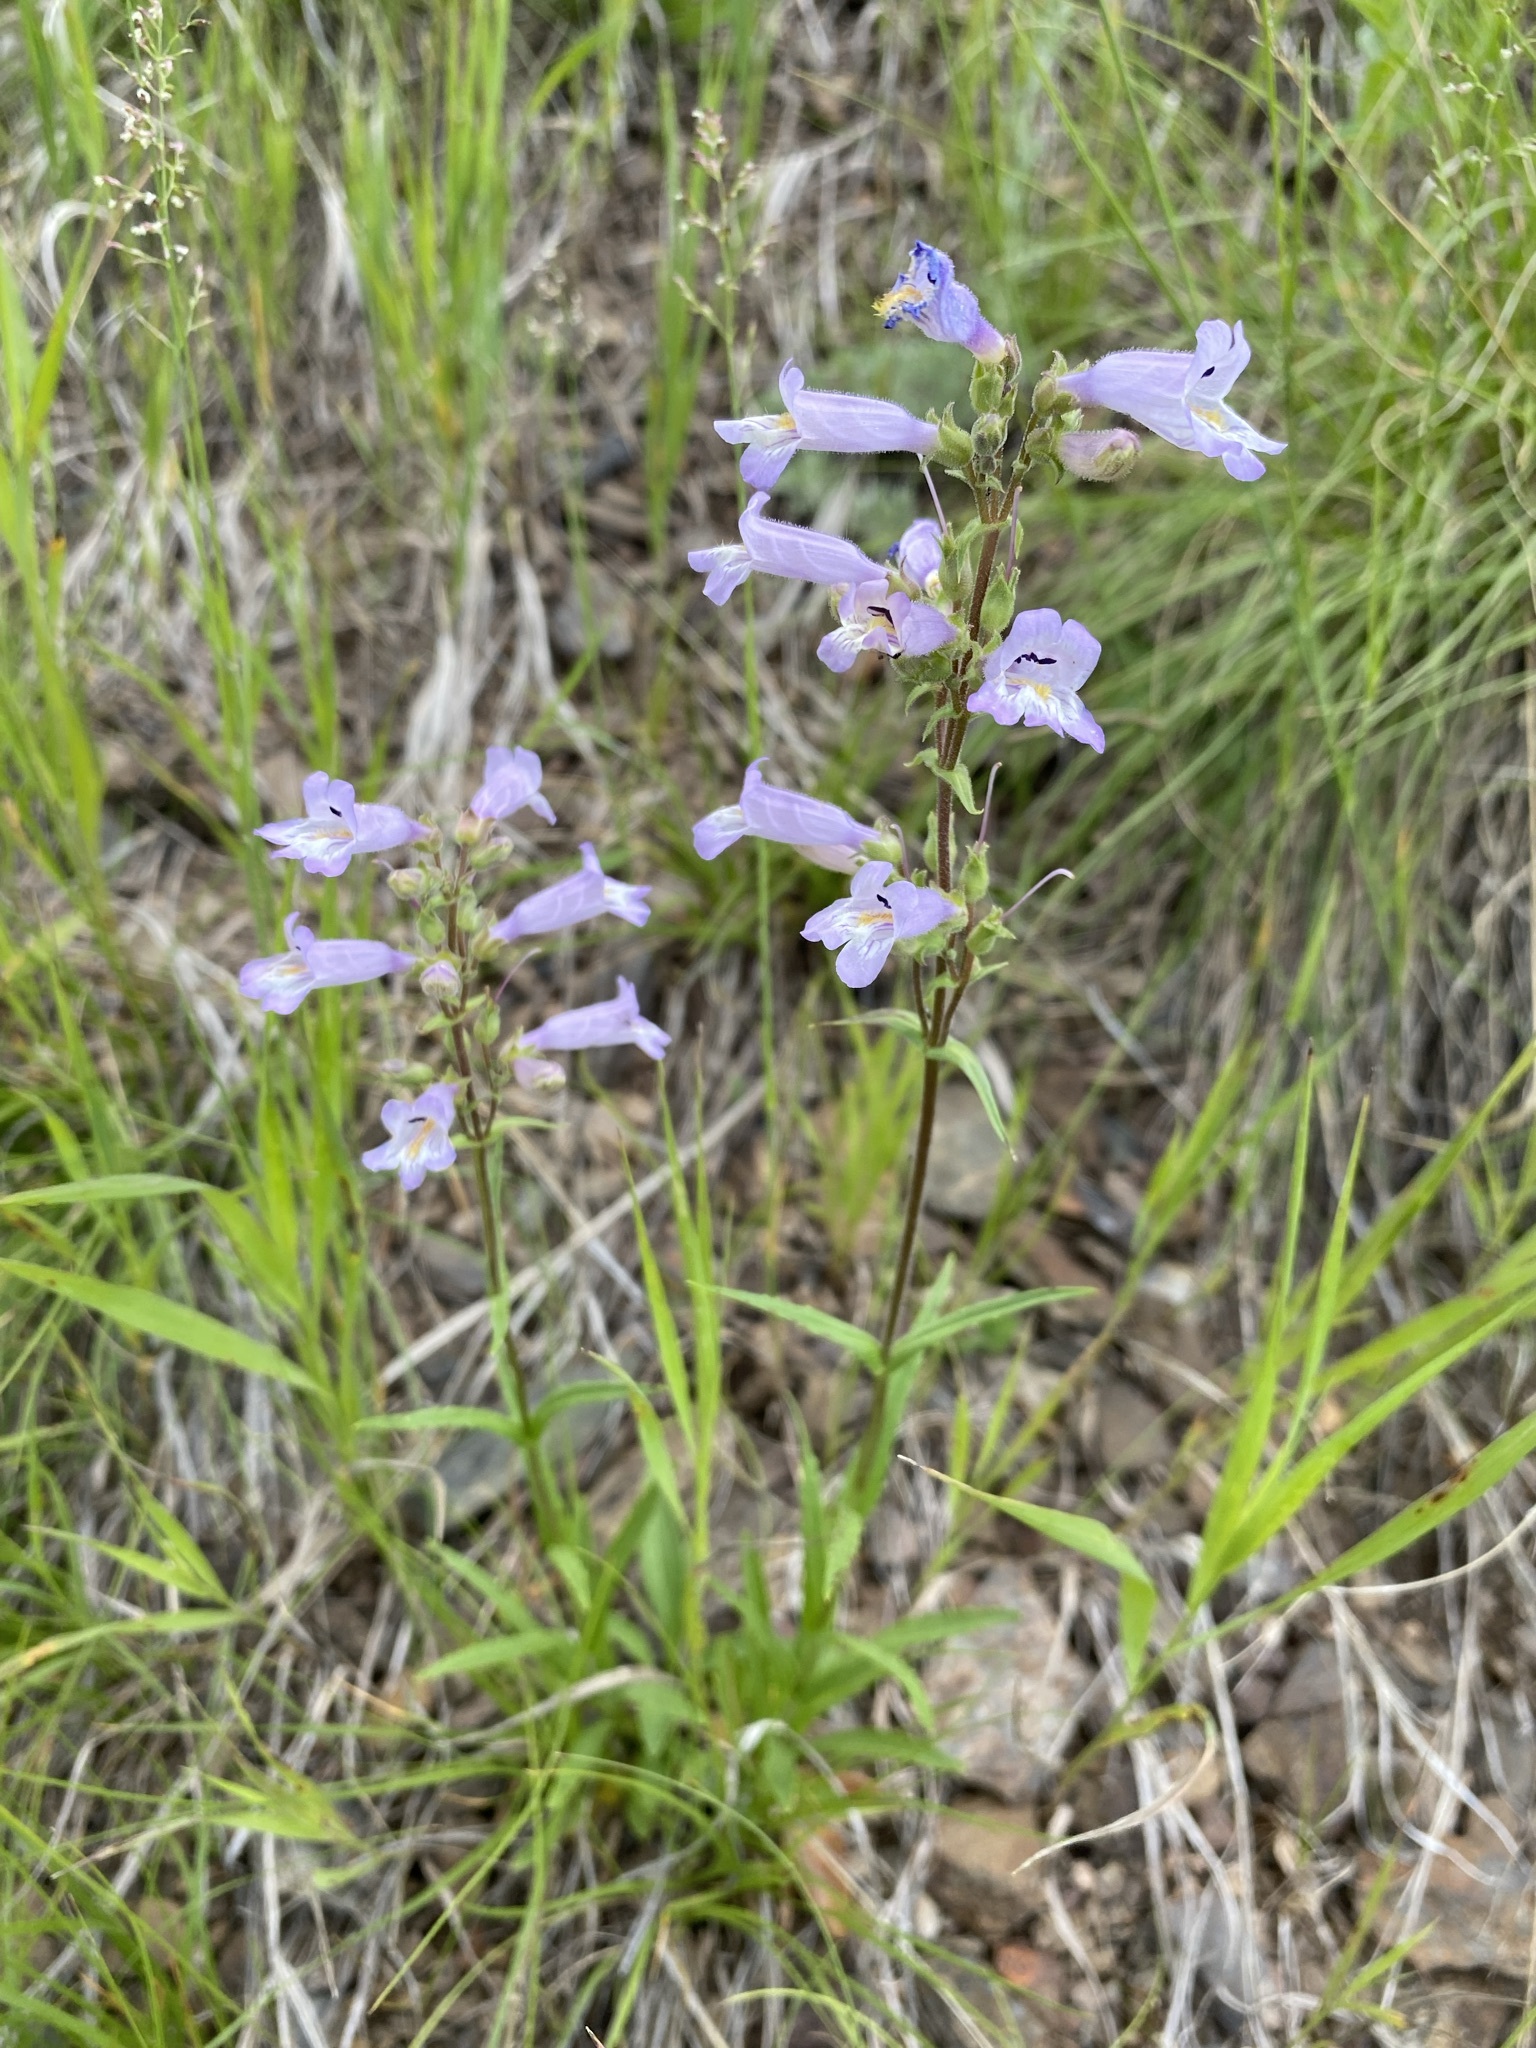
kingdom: Plantae
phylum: Tracheophyta
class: Magnoliopsida
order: Lamiales
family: Plantaginaceae
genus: Penstemon
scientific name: Penstemon gracilis
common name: Slender beardtongue
